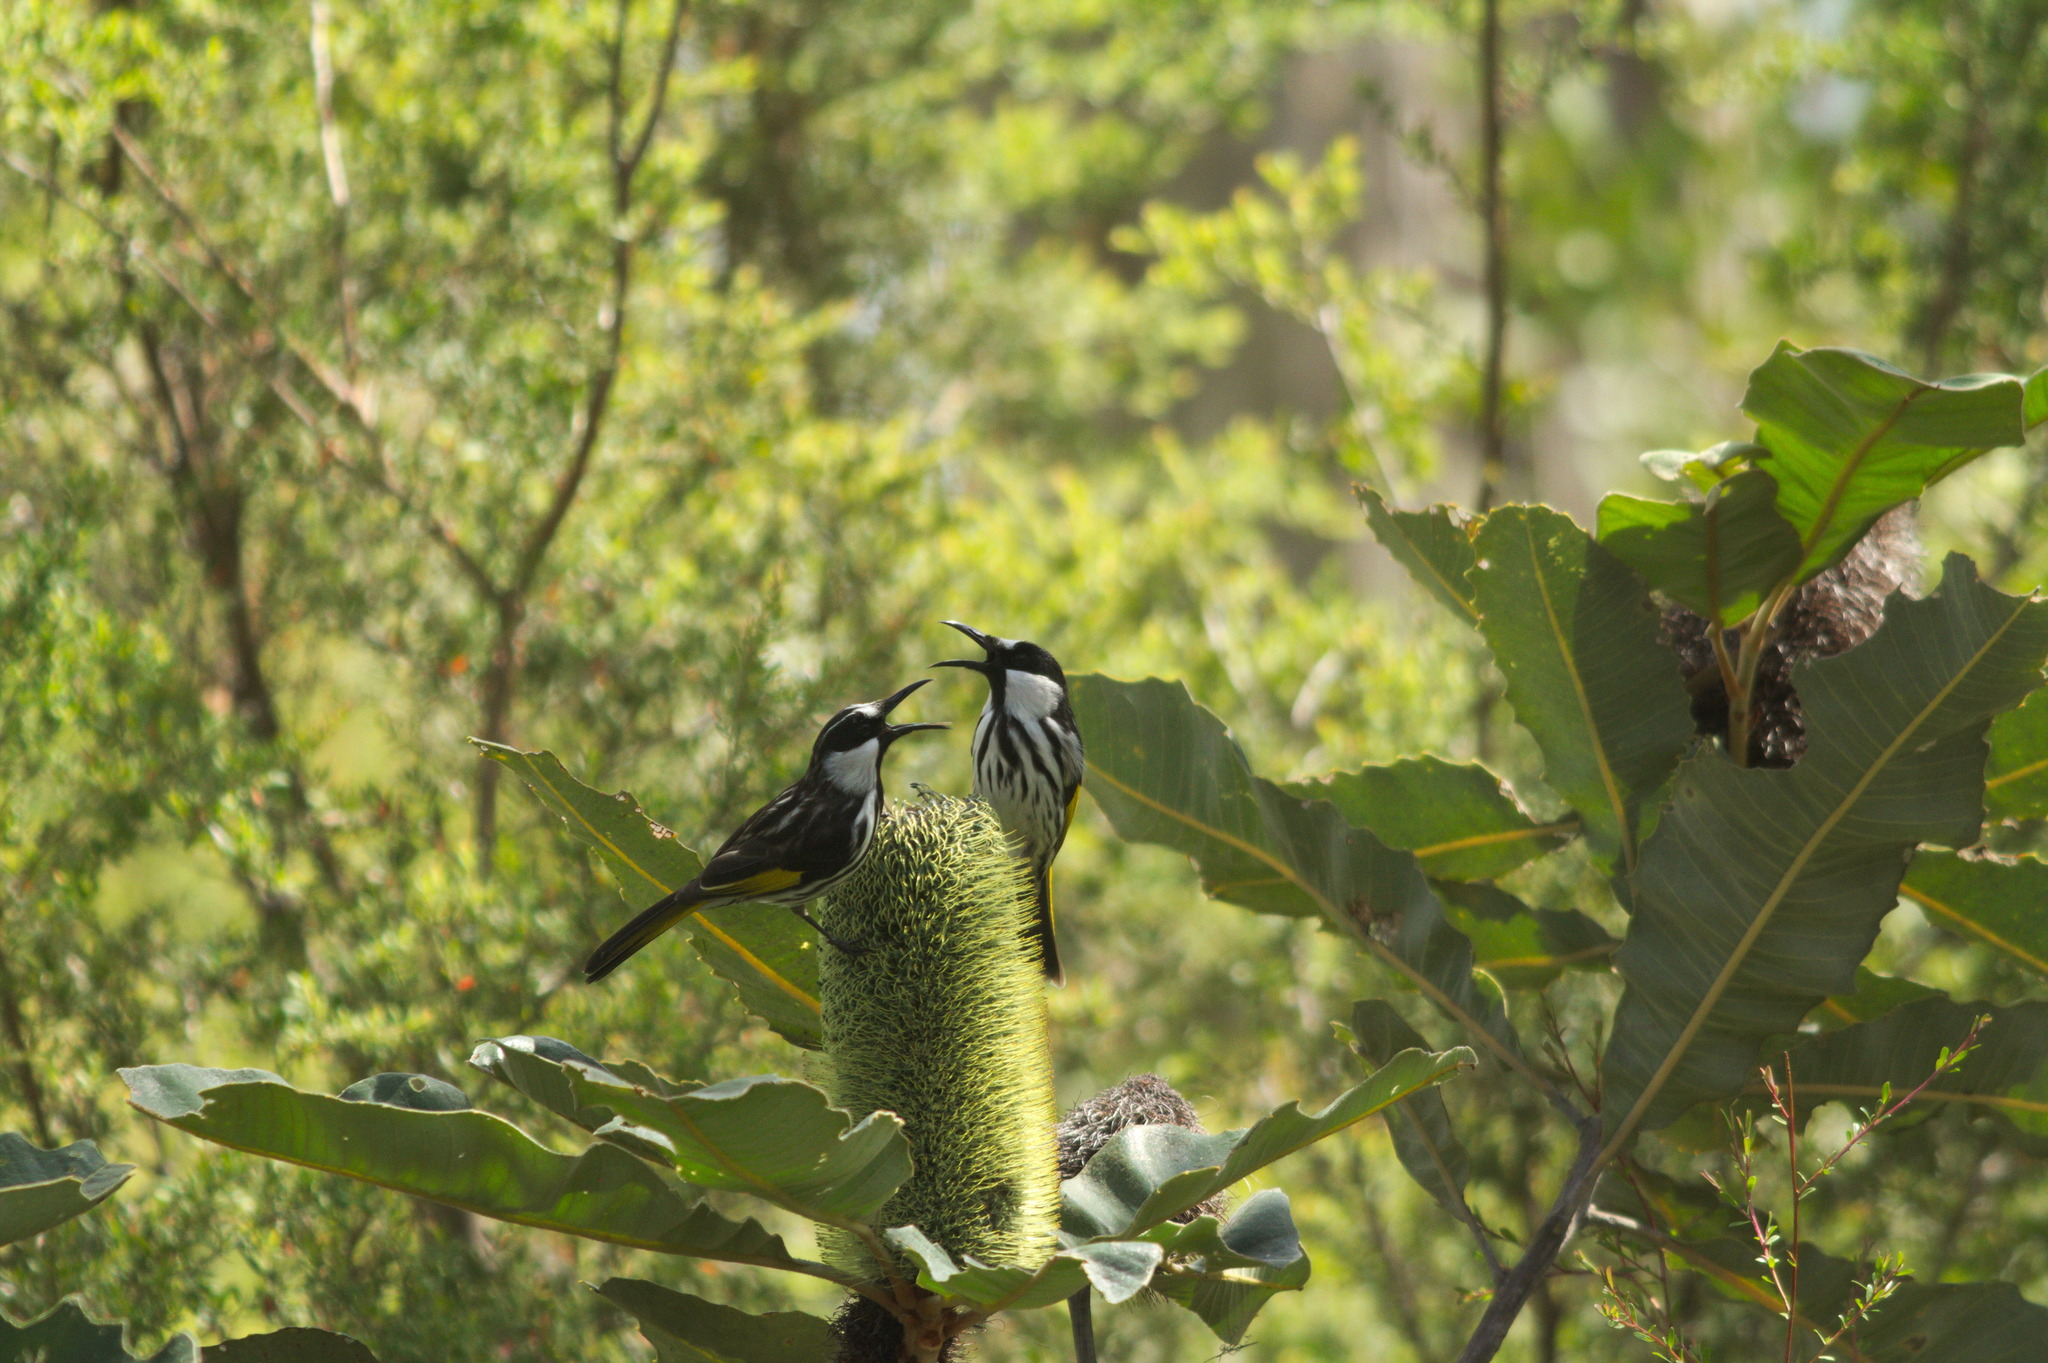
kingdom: Animalia
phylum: Chordata
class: Aves
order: Passeriformes
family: Meliphagidae
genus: Phylidonyris
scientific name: Phylidonyris niger
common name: White-cheeked honeyeater
